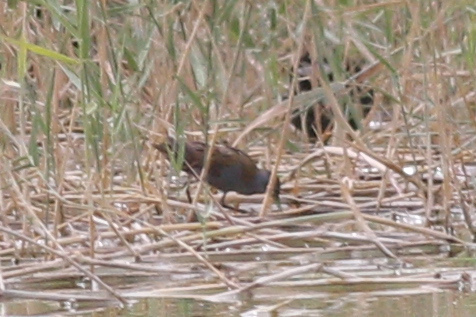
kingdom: Animalia
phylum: Chordata
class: Aves
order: Gruiformes
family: Rallidae
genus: Porzana
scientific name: Porzana parva
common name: Little crake
